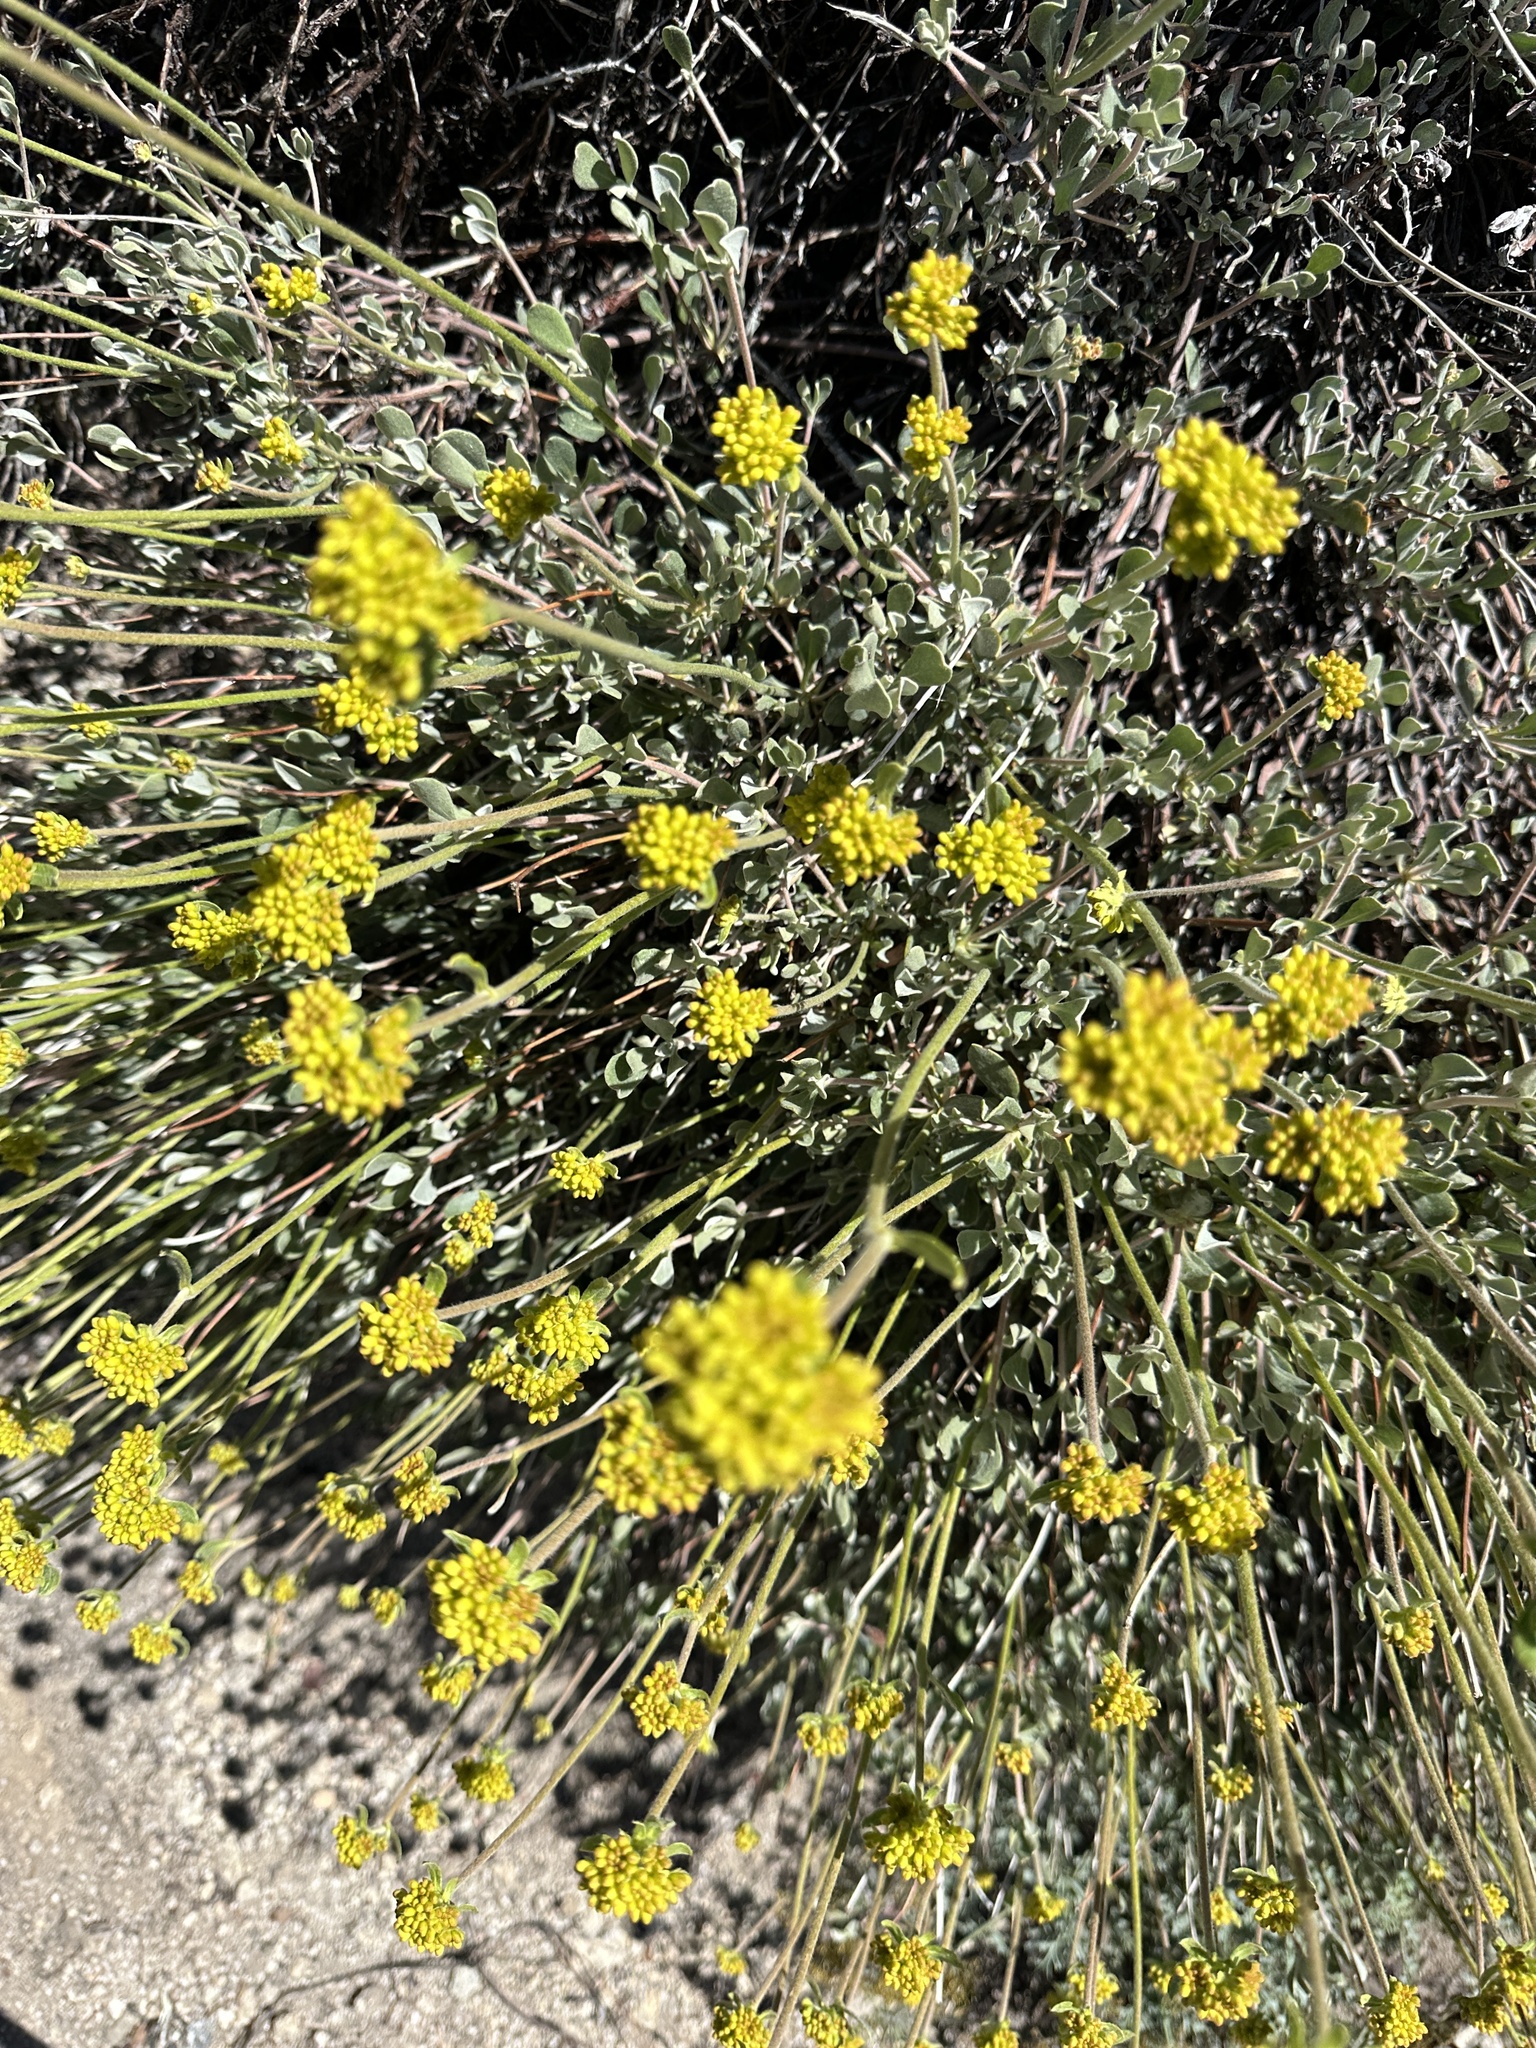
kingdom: Plantae
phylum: Tracheophyta
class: Magnoliopsida
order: Caryophyllales
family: Polygonaceae
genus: Eriogonum
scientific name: Eriogonum umbellatum
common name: Sulfur-buckwheat
